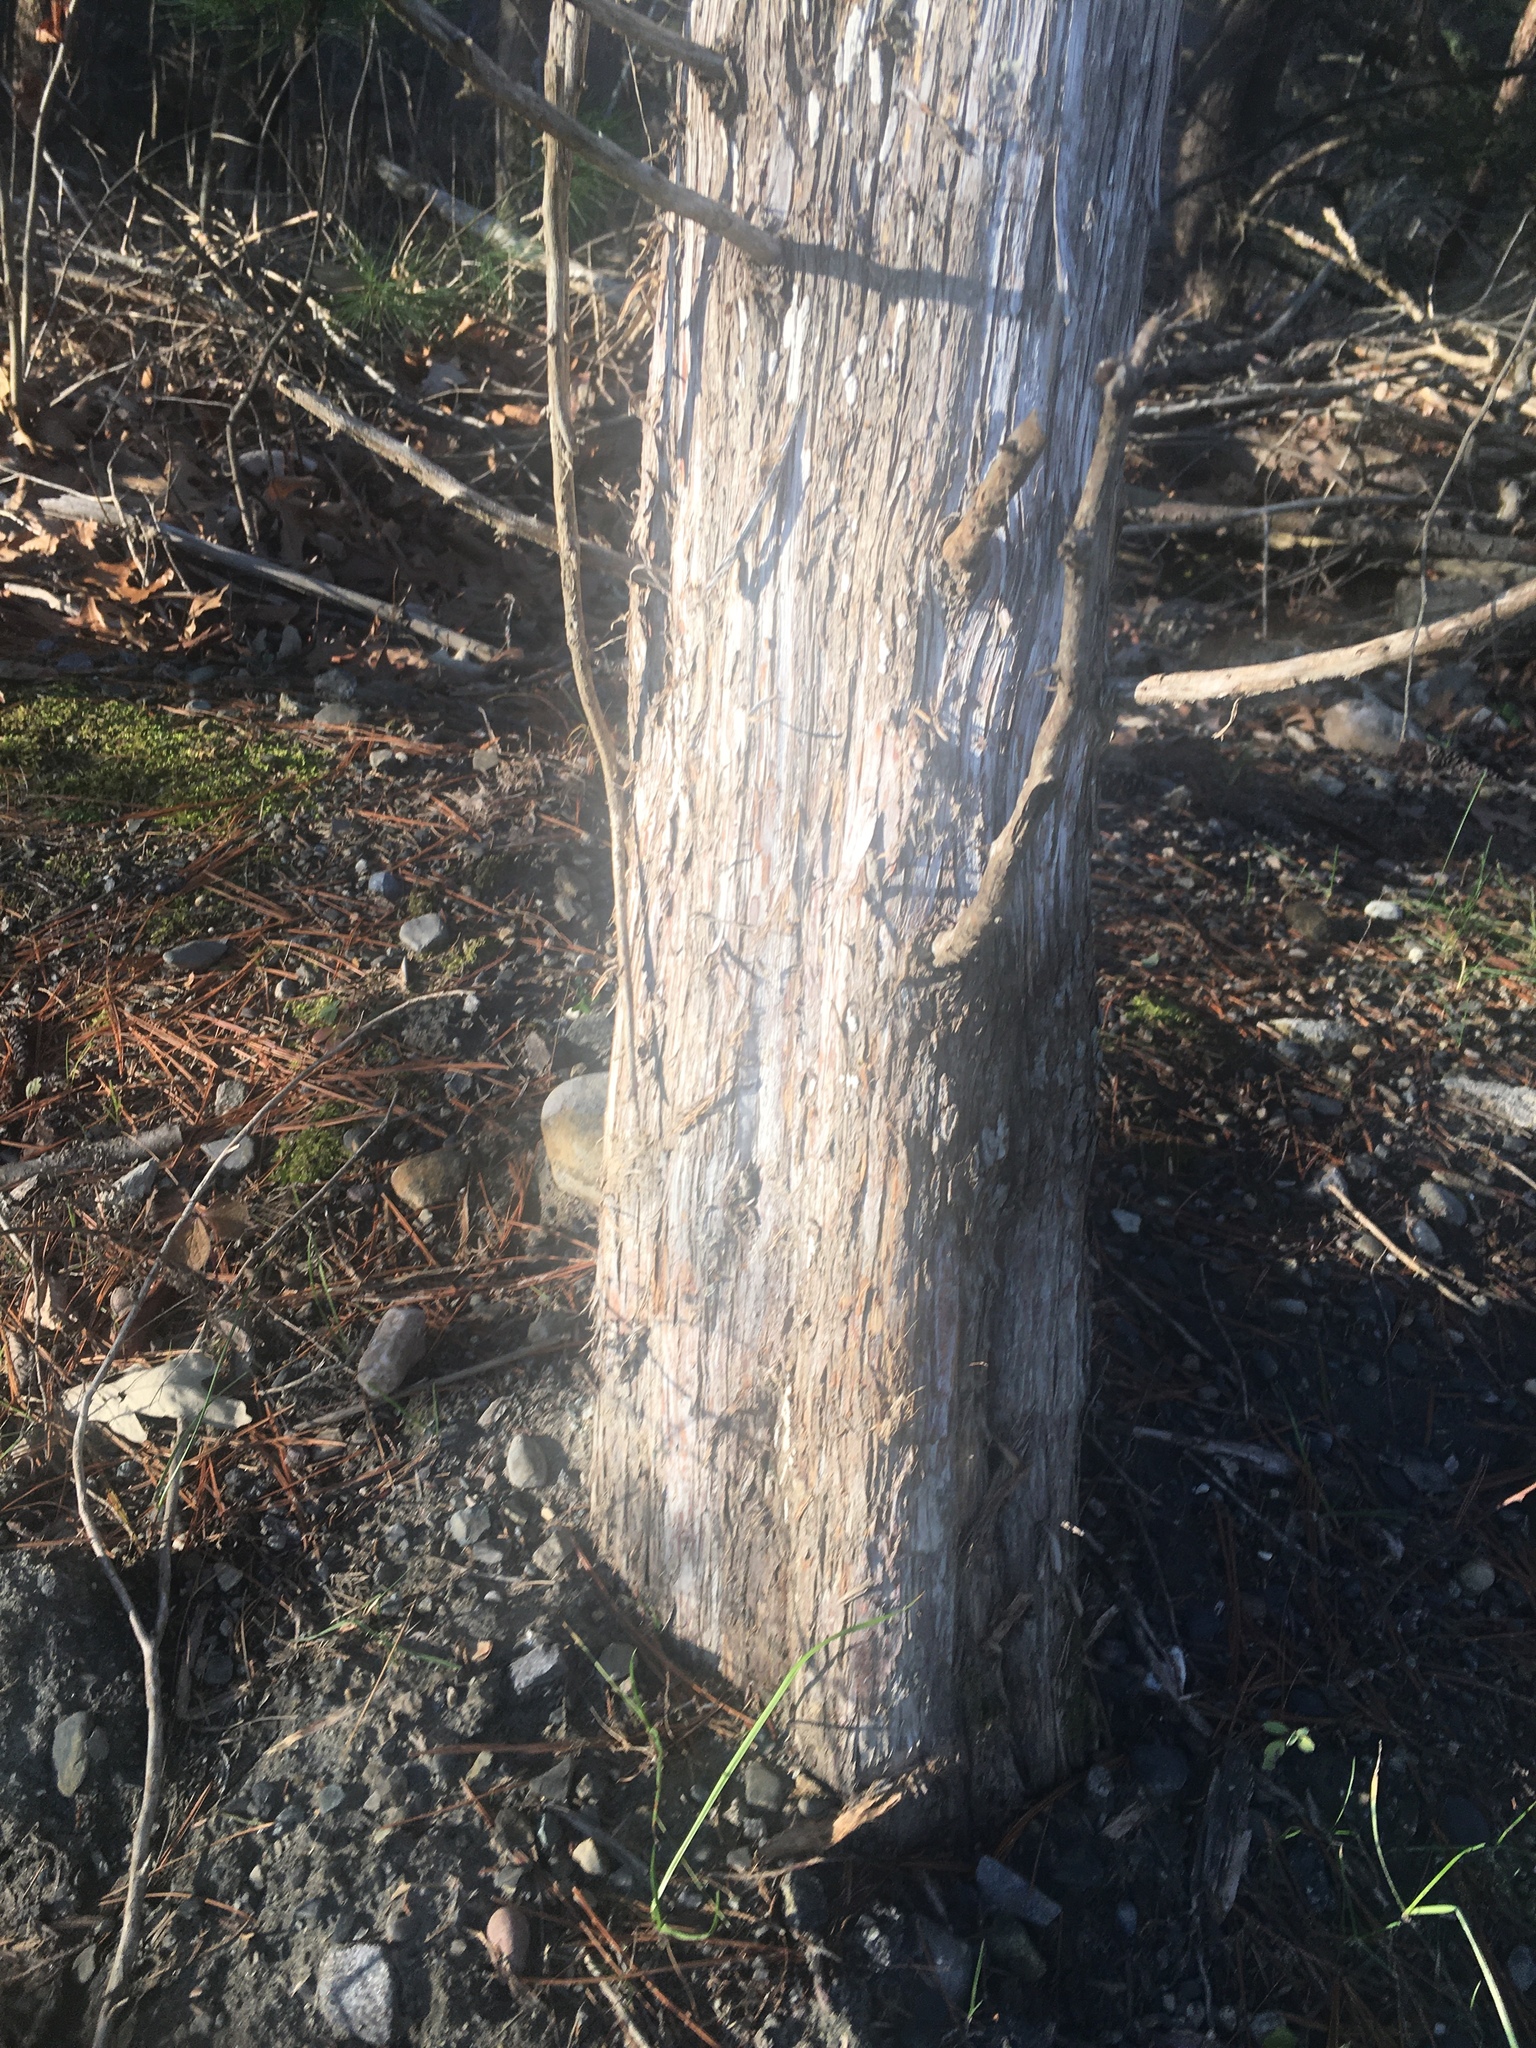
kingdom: Plantae
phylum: Tracheophyta
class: Pinopsida
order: Pinales
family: Cupressaceae
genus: Juniperus
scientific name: Juniperus virginiana
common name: Red juniper
